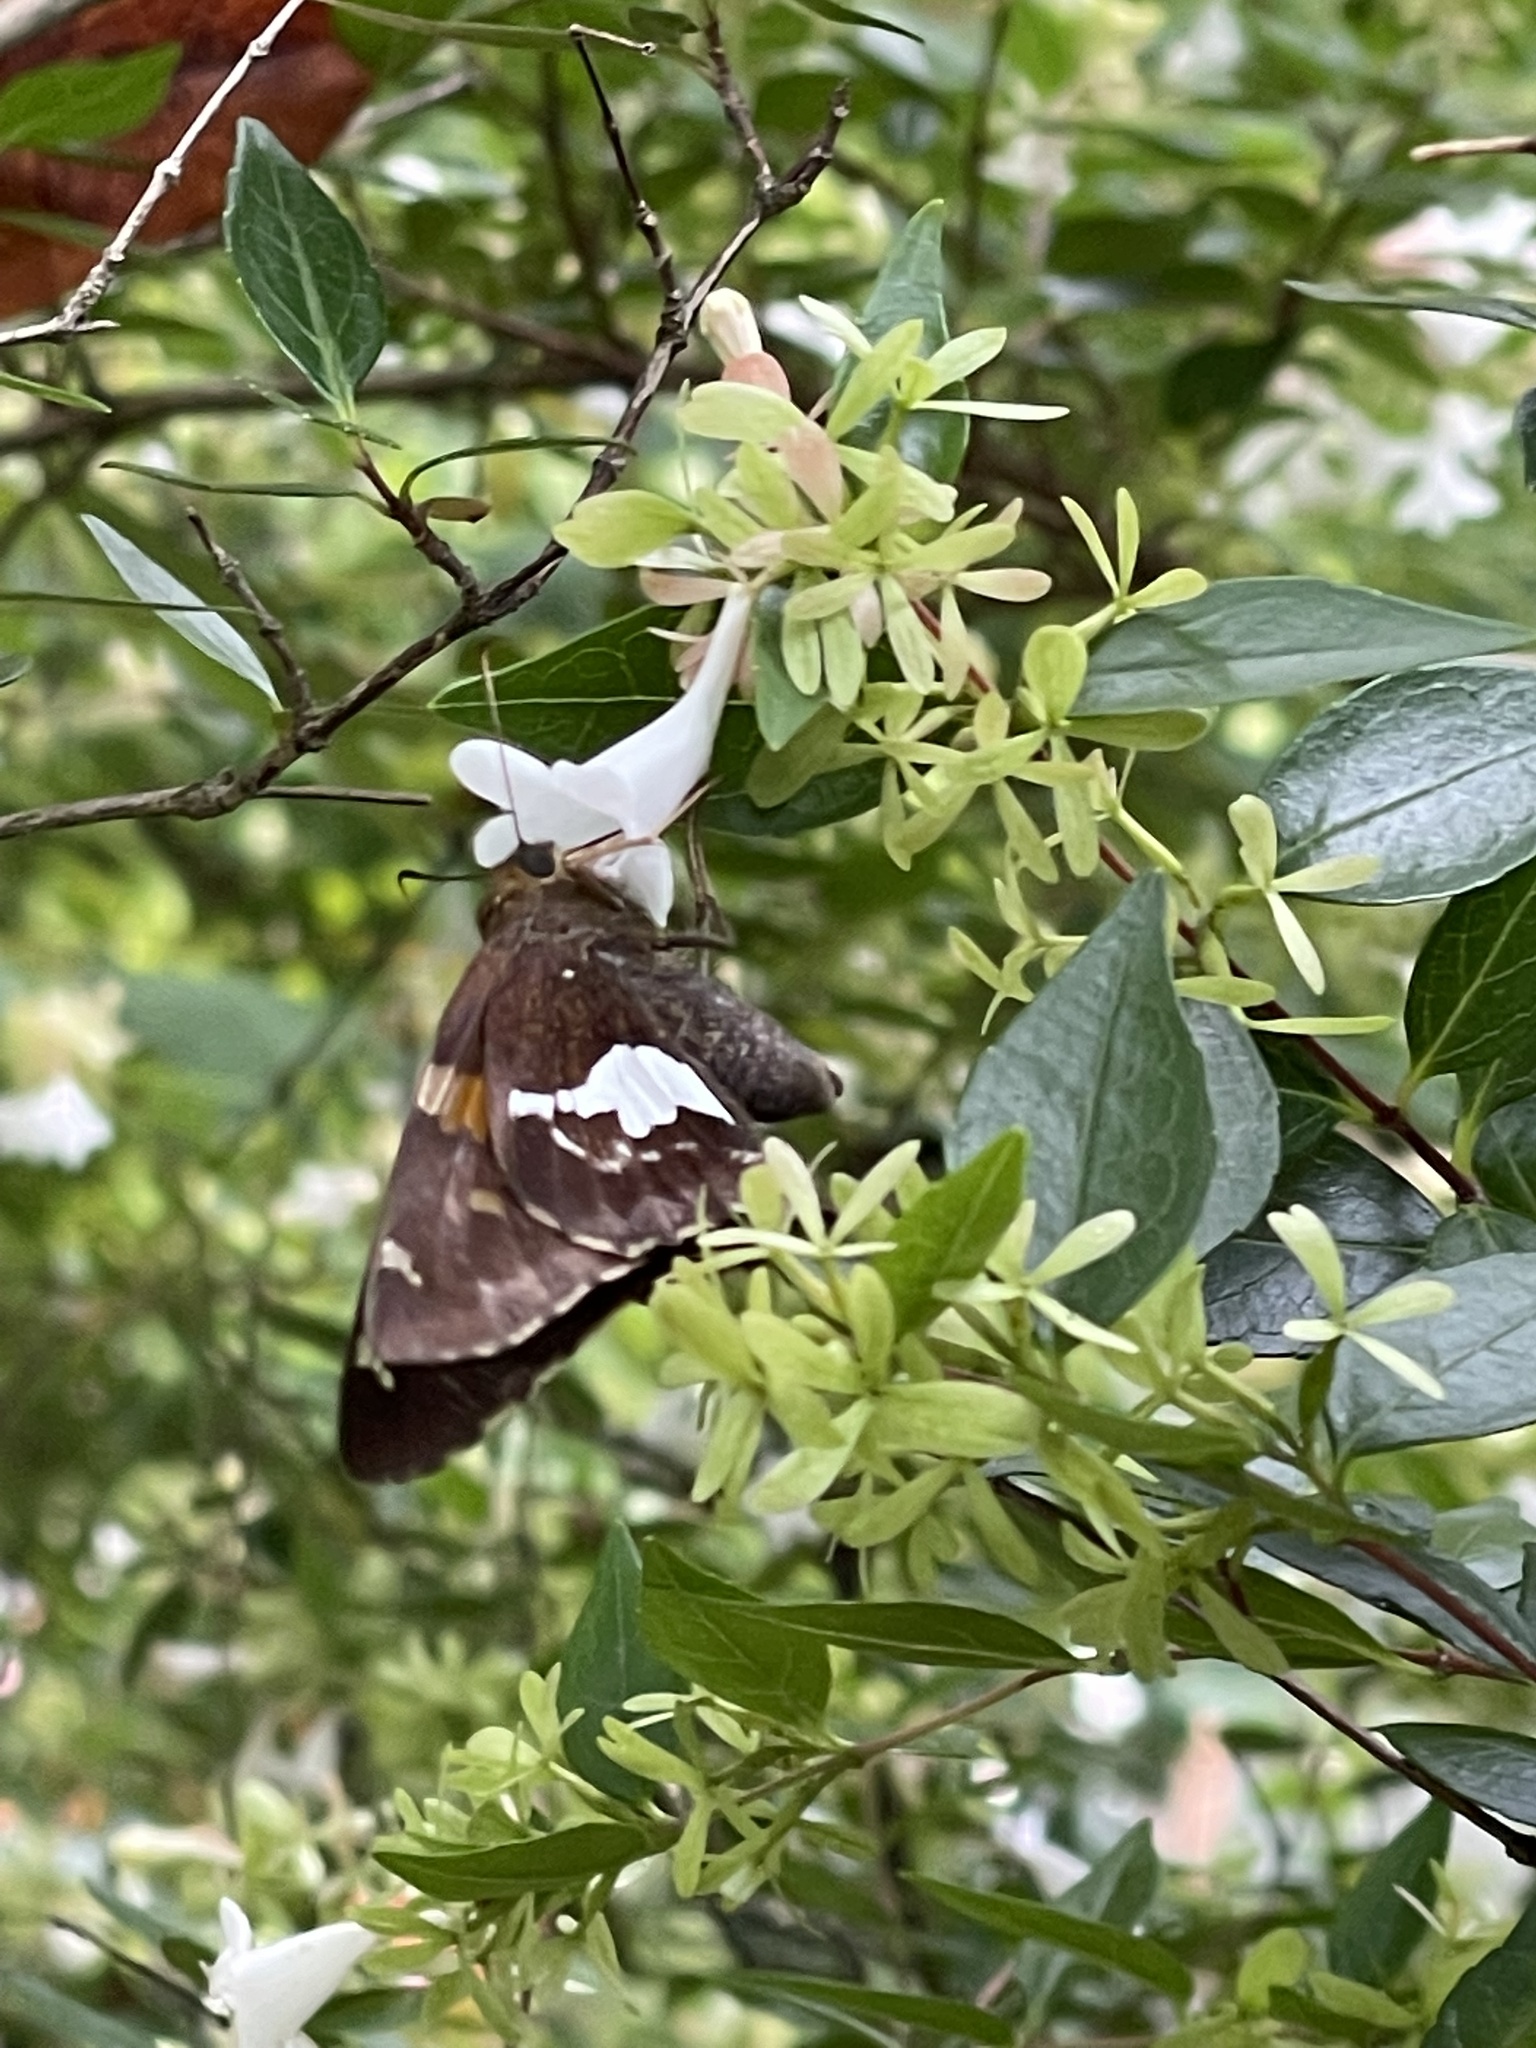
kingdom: Animalia
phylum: Arthropoda
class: Insecta
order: Lepidoptera
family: Hesperiidae
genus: Epargyreus
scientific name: Epargyreus clarus
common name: Silver-spotted skipper
